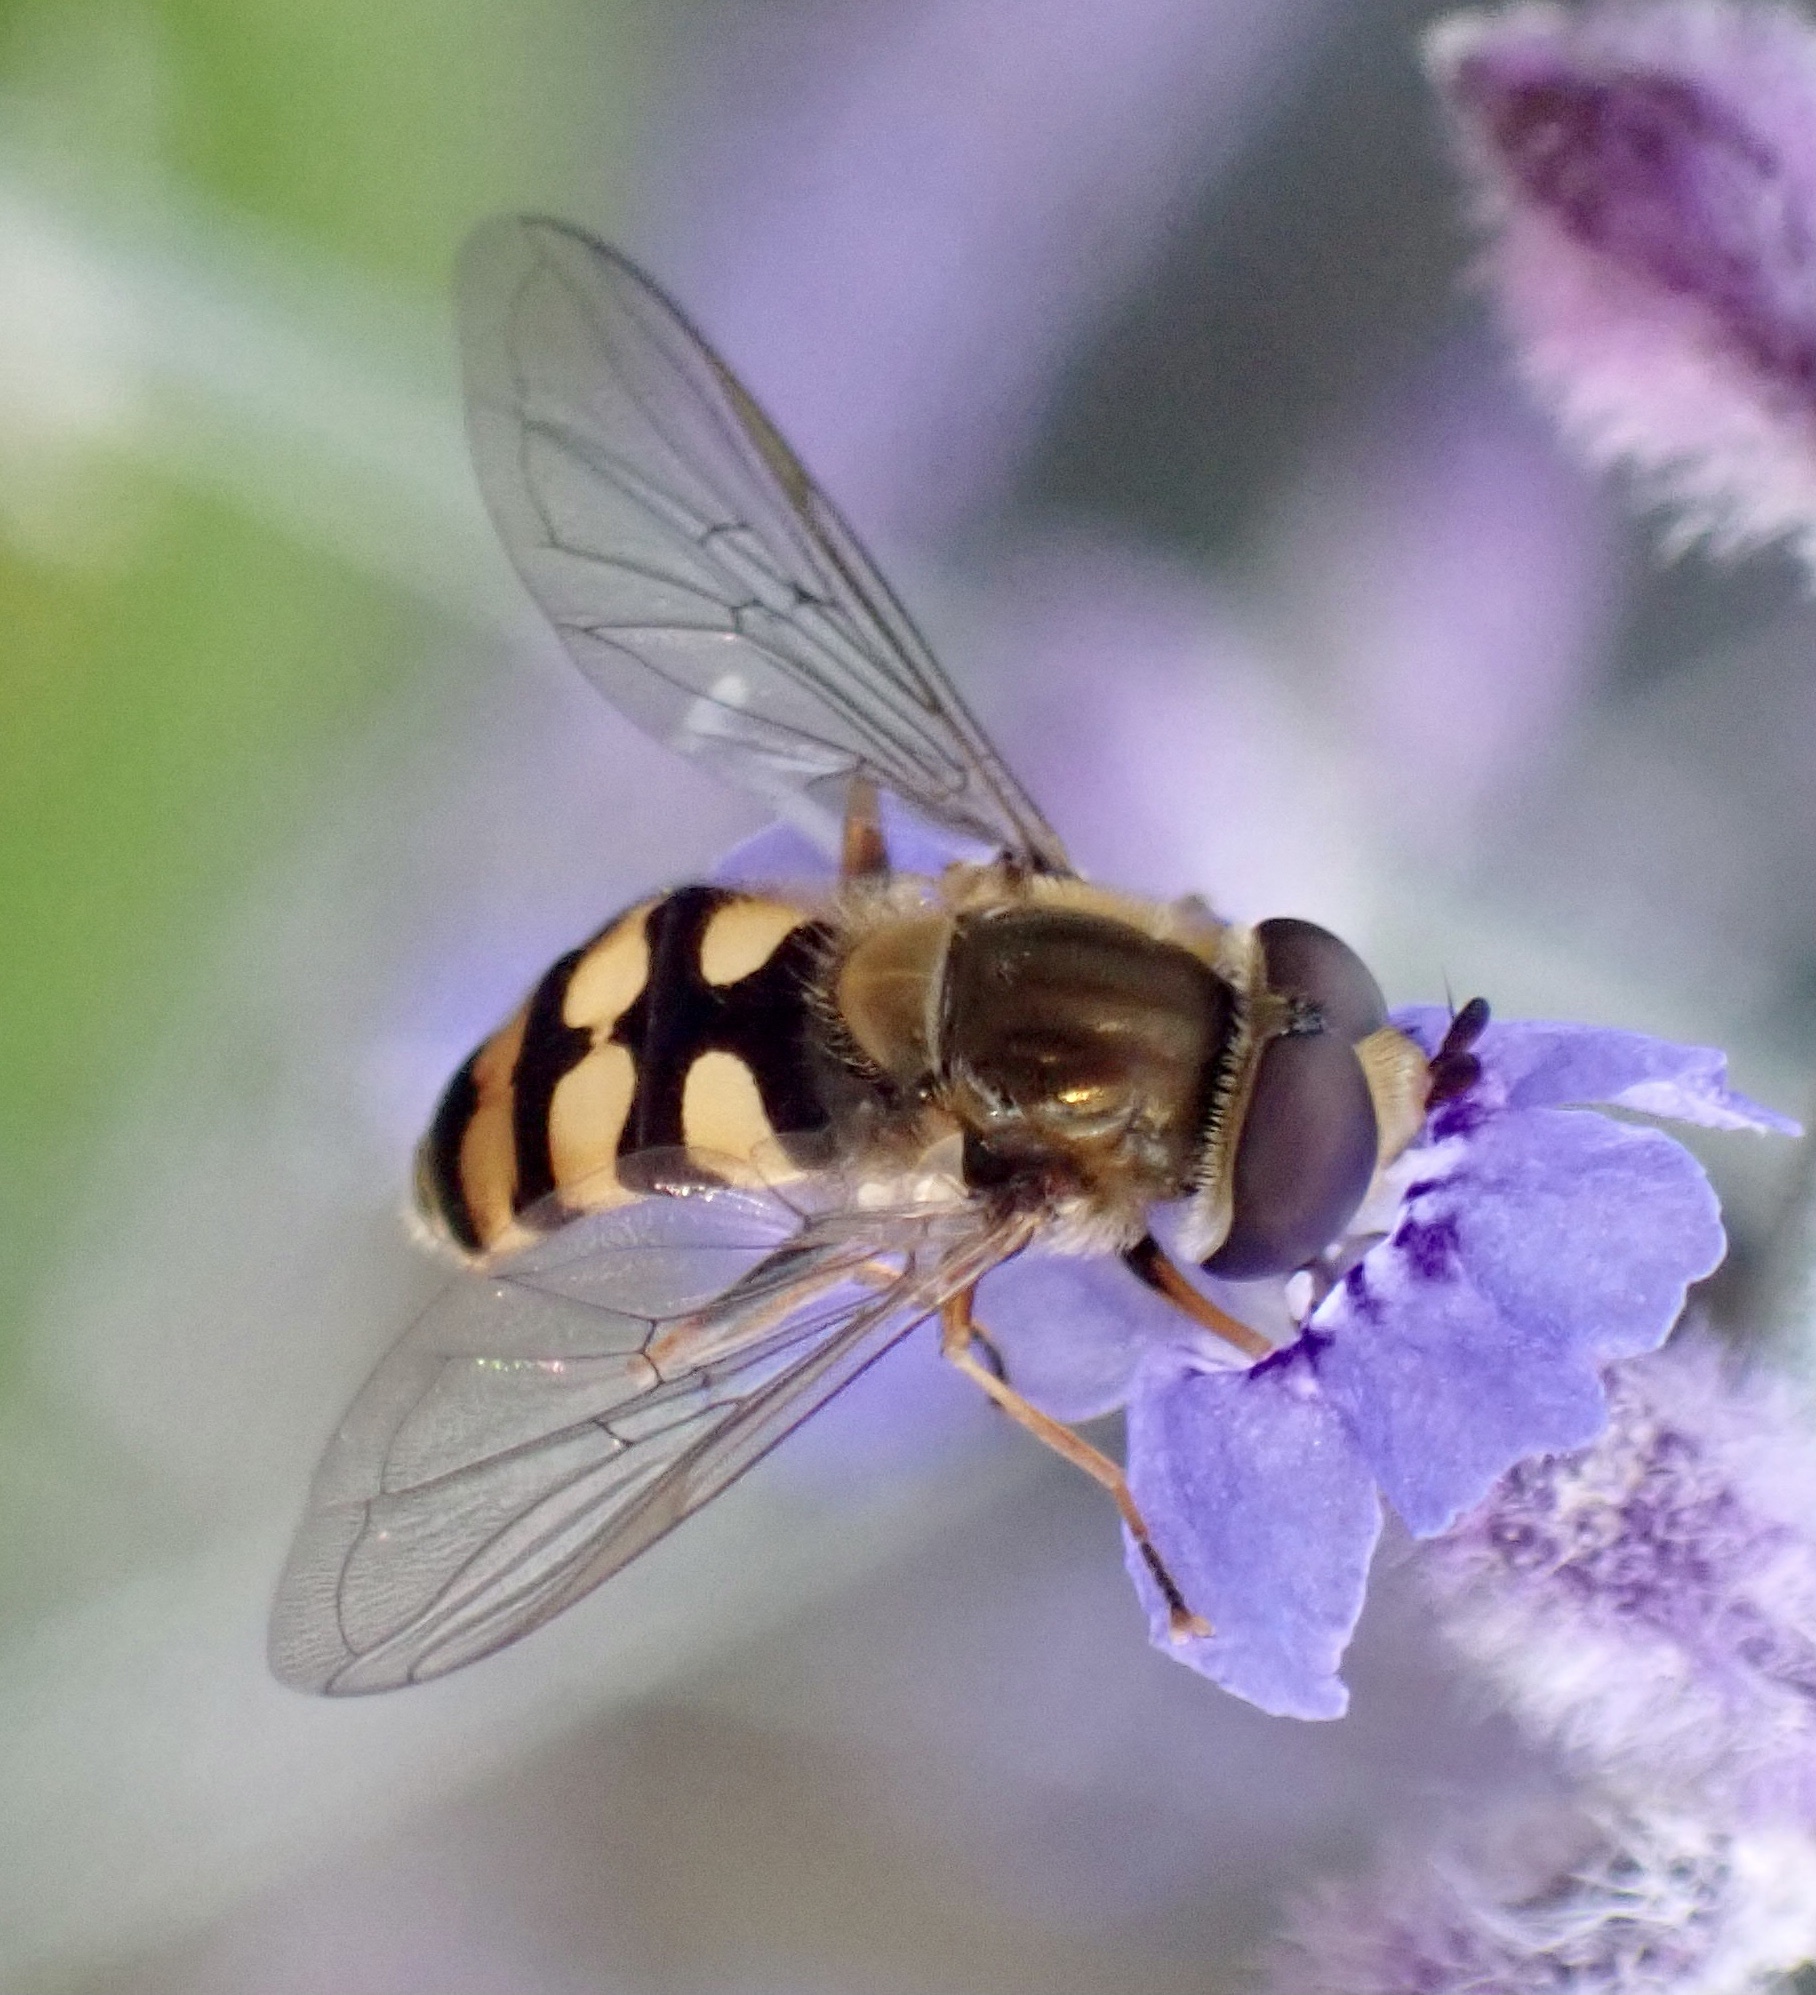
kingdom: Animalia
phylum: Arthropoda
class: Insecta
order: Diptera
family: Syrphidae
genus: Eupeodes
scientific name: Eupeodes corollae
